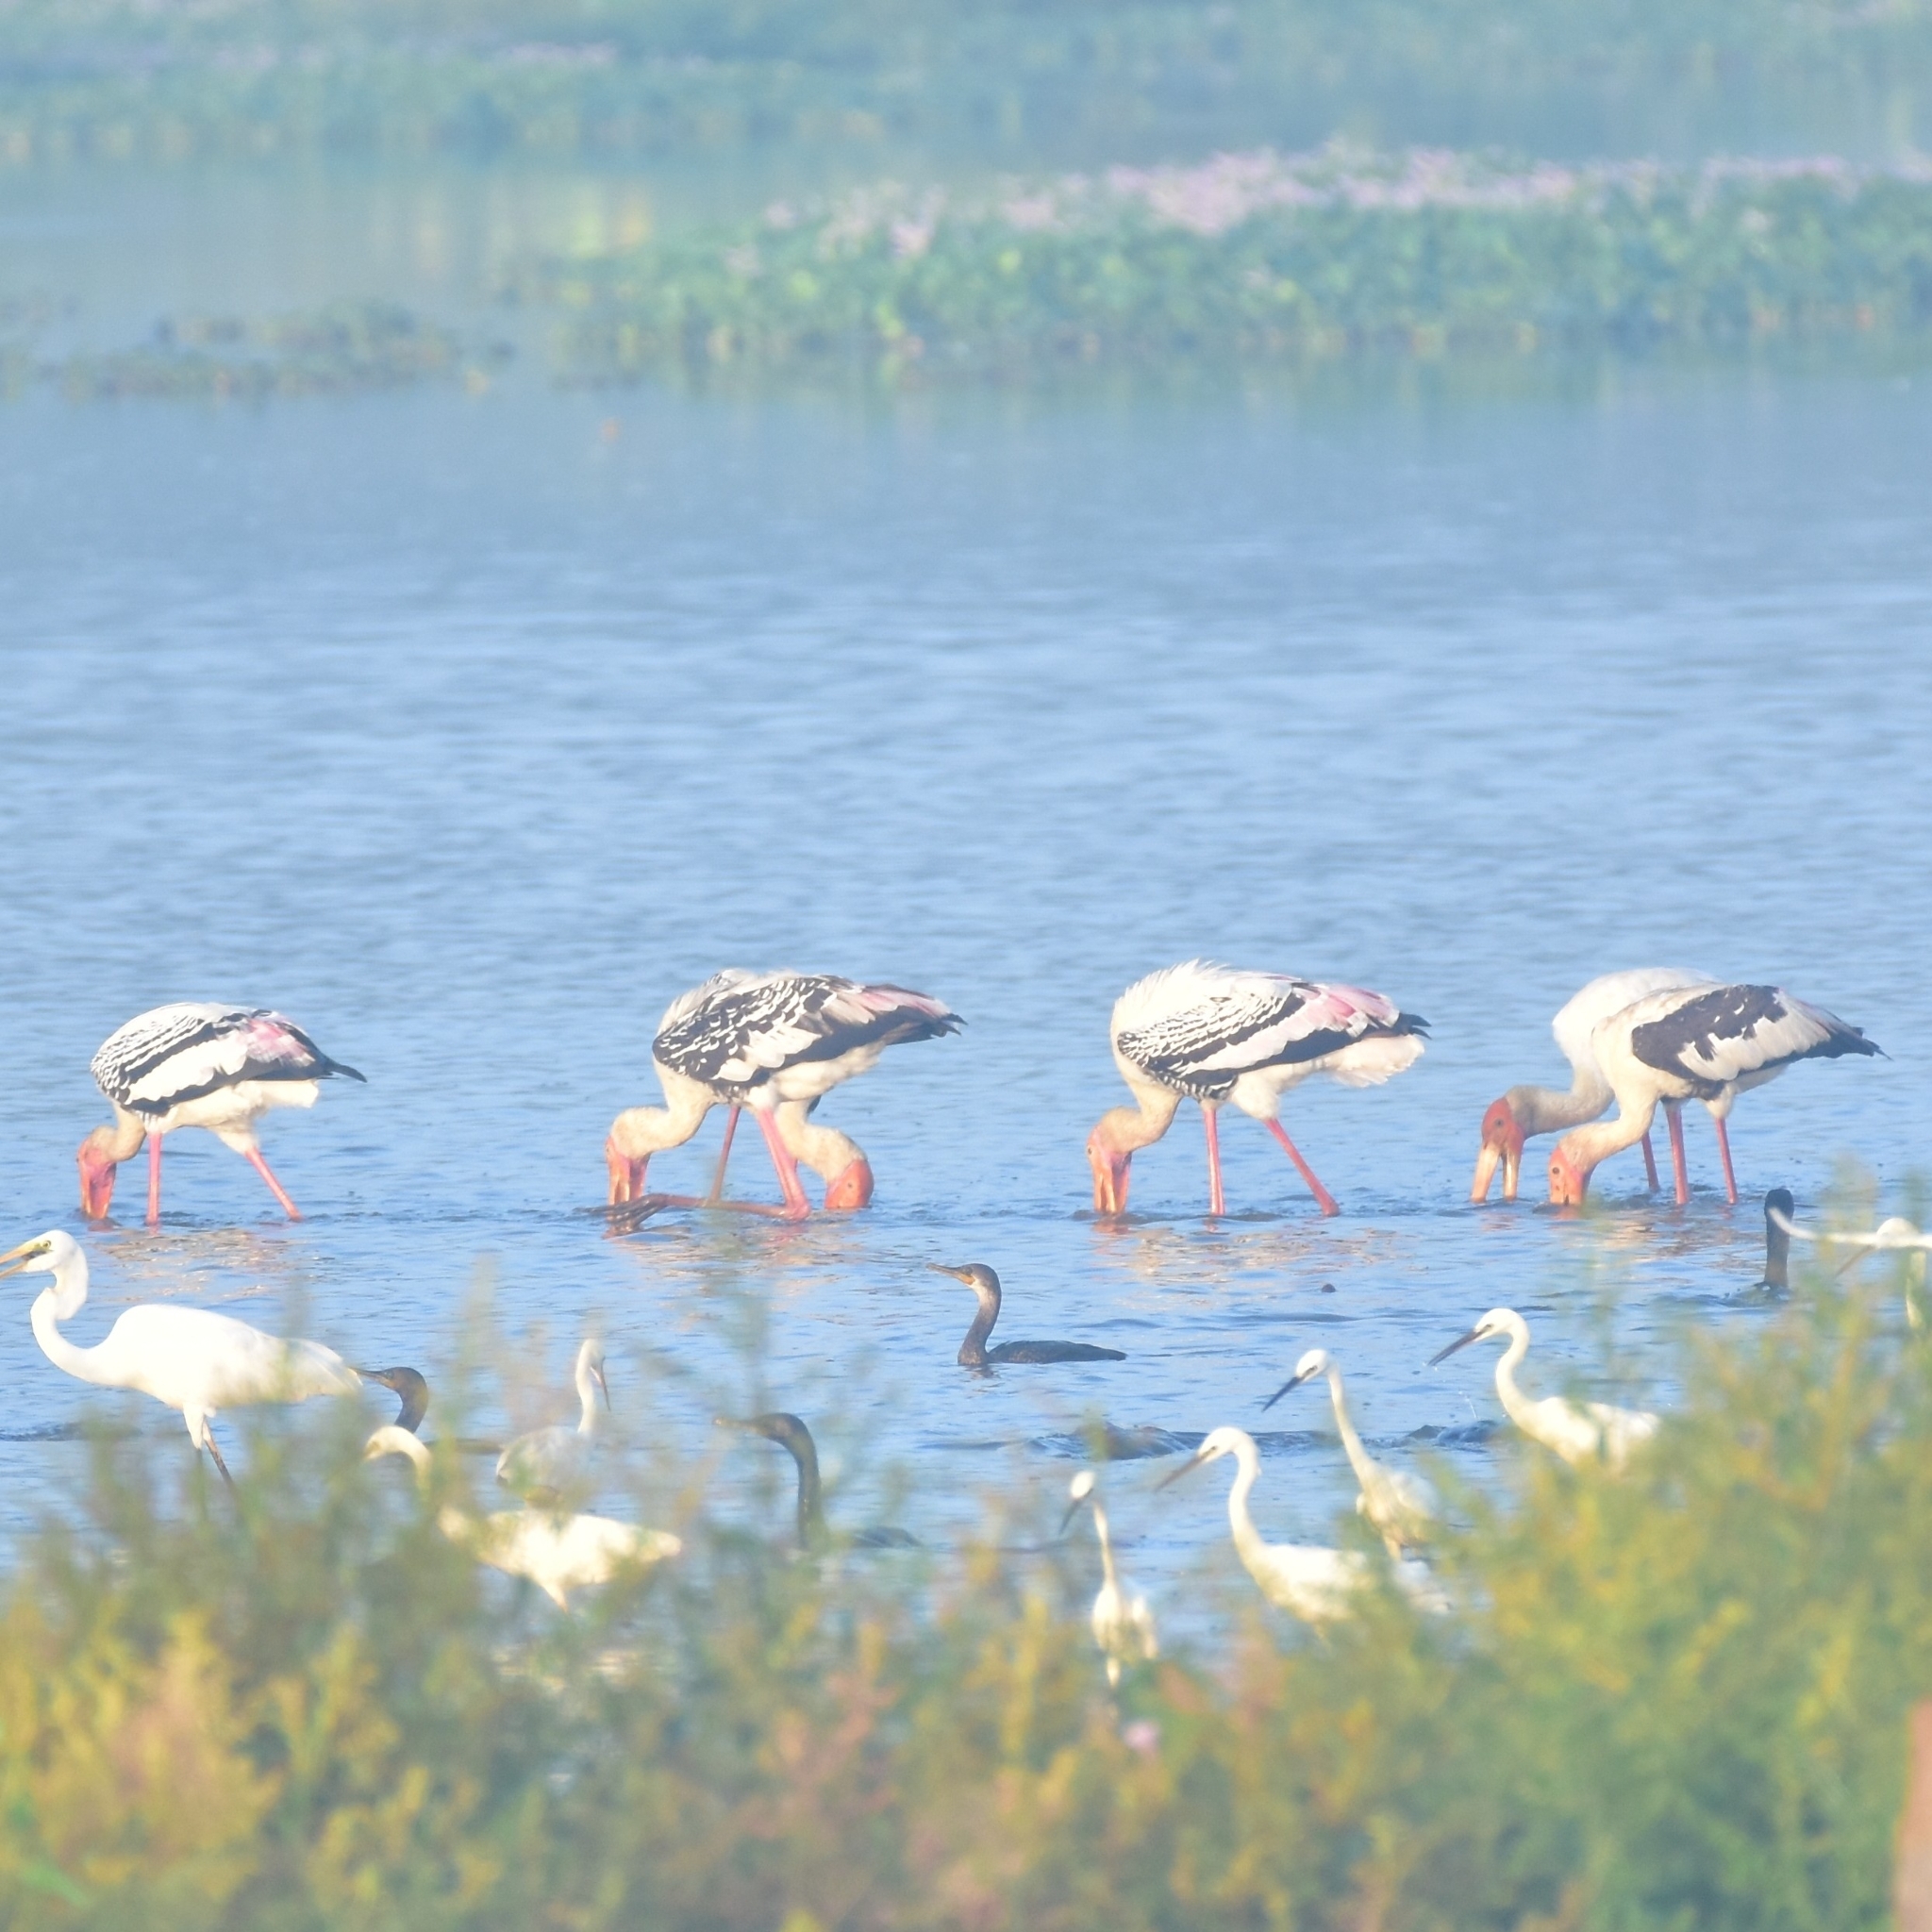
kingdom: Animalia
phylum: Chordata
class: Aves
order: Ciconiiformes
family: Ciconiidae
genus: Mycteria
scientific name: Mycteria leucocephala
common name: Painted stork
